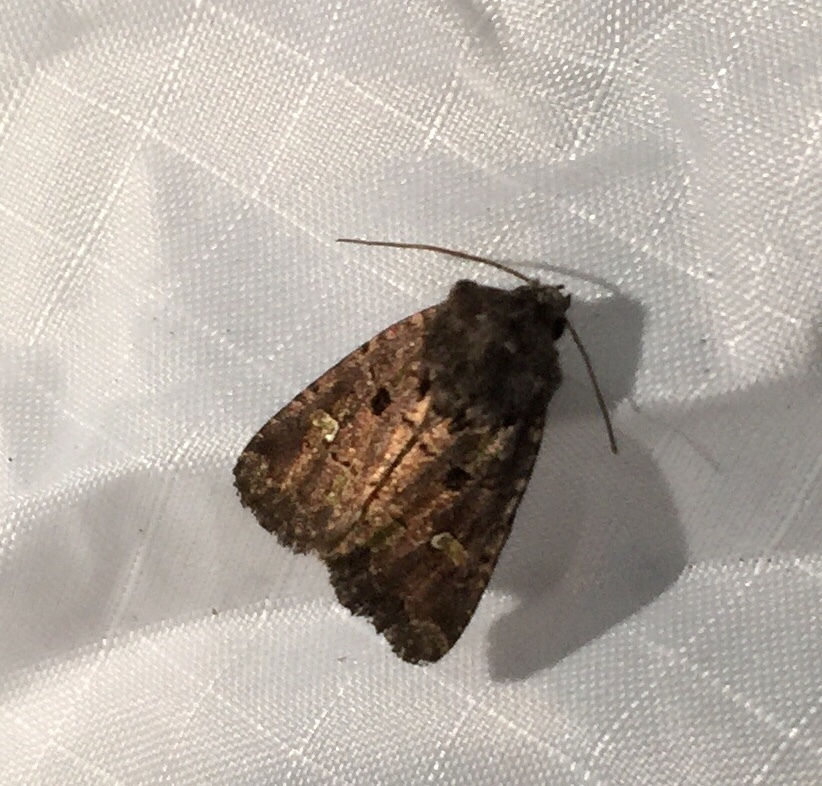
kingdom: Animalia
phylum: Arthropoda
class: Insecta
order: Lepidoptera
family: Noctuidae
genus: Lacinipolia
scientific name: Lacinipolia renigera
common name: Kidney-spotted minor
